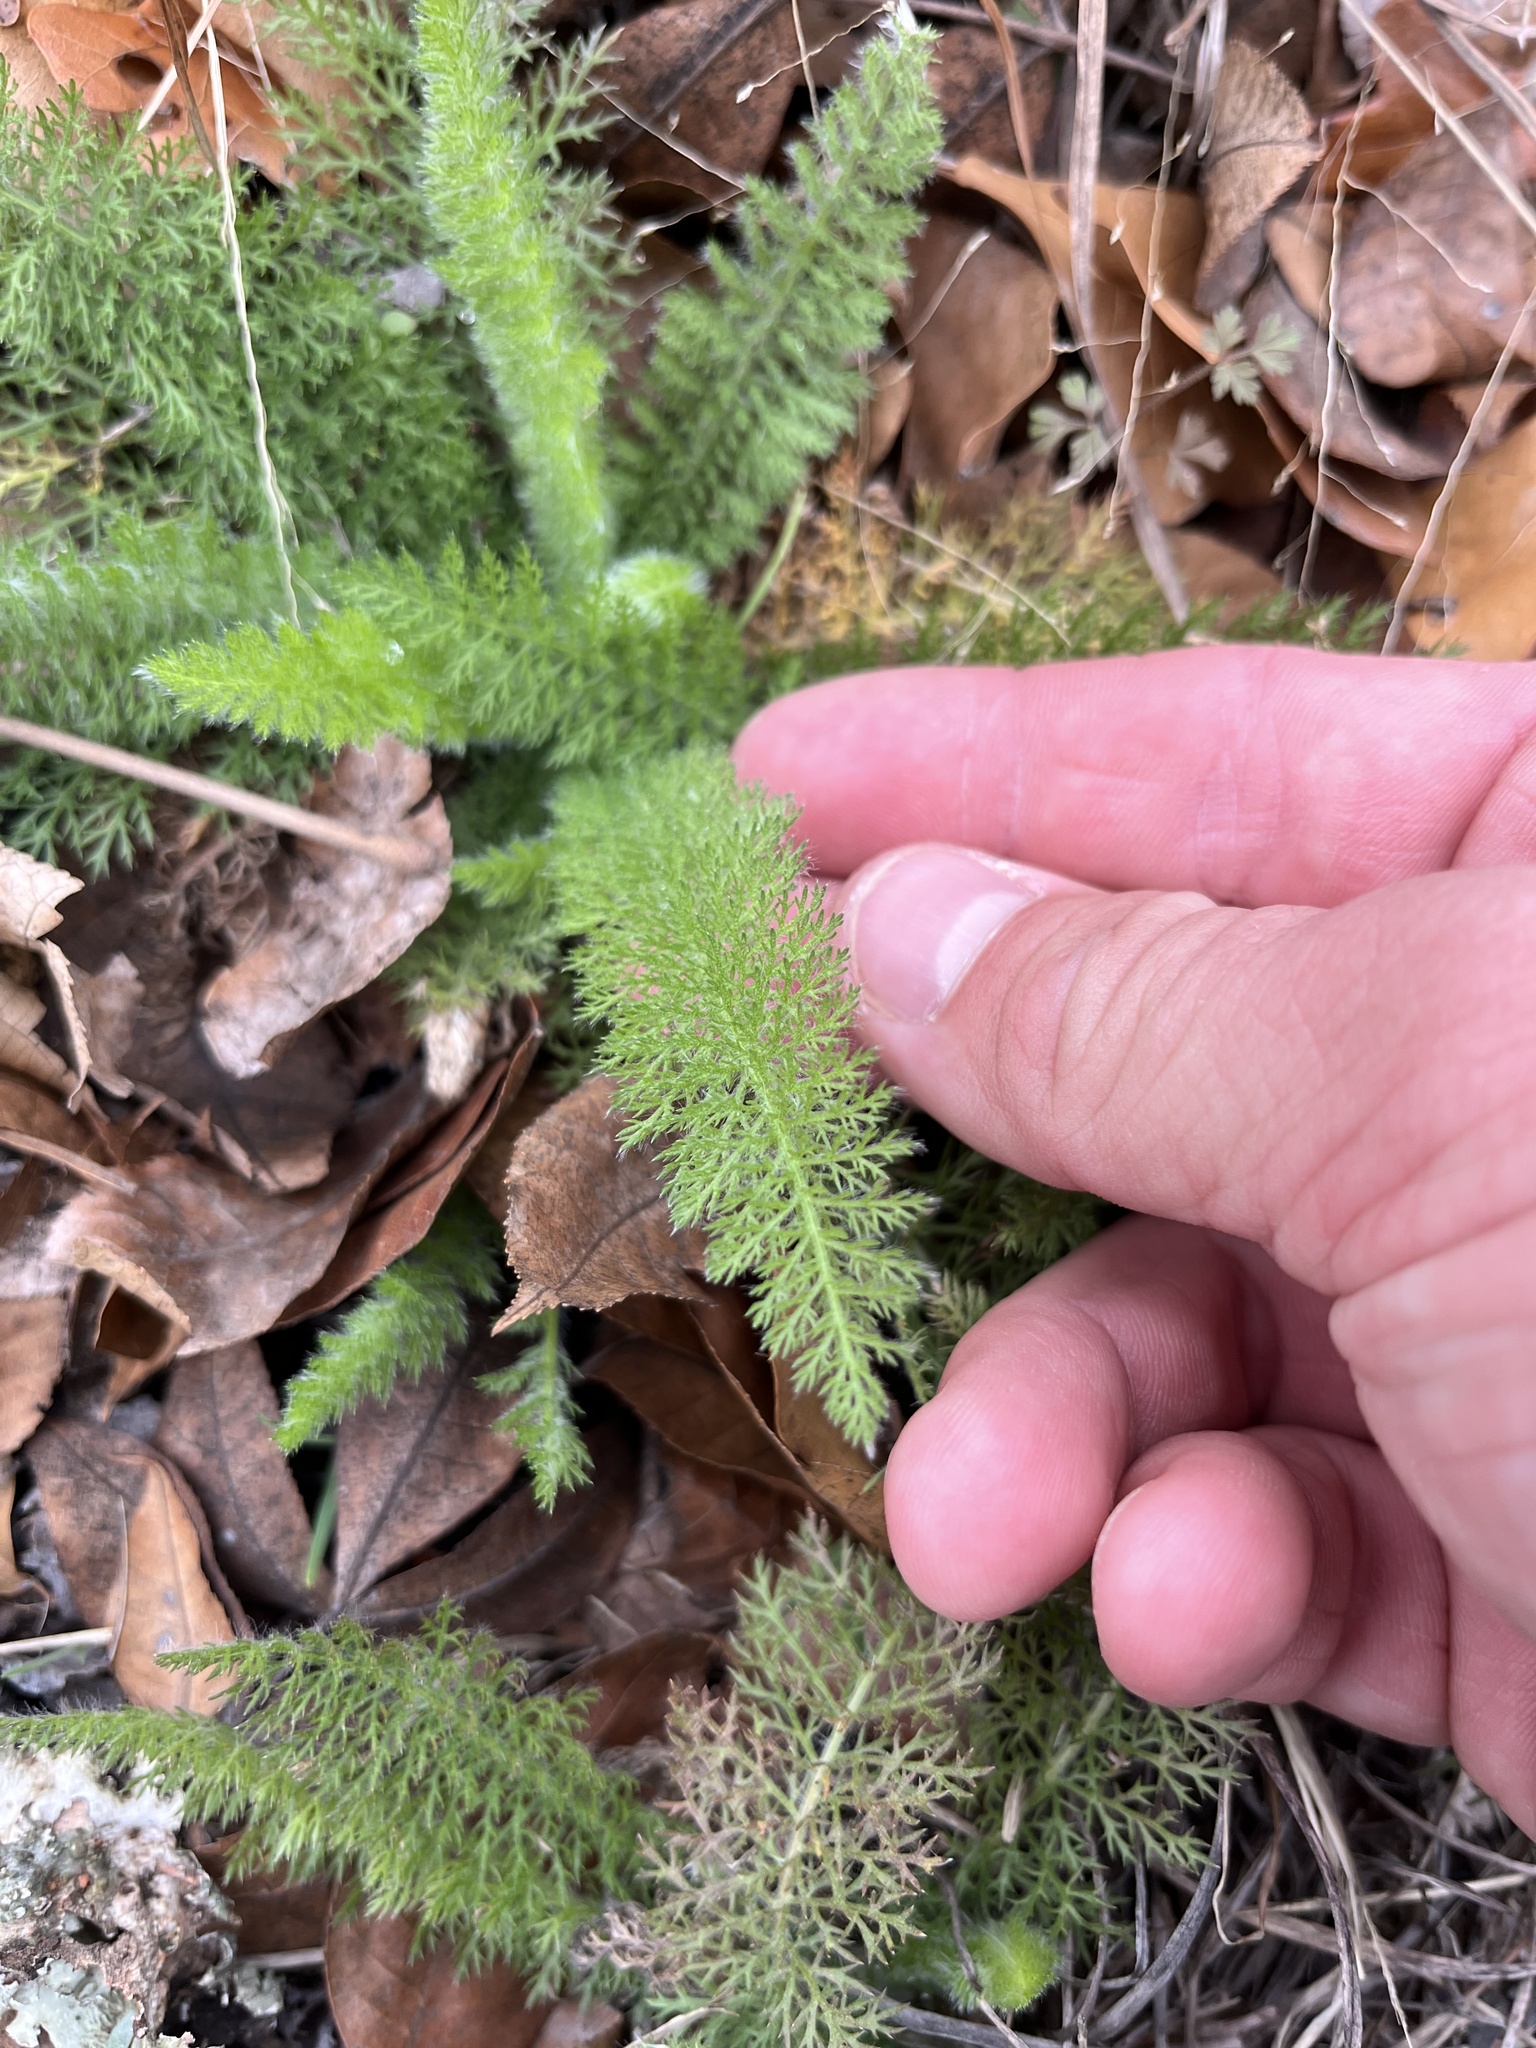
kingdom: Plantae
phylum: Tracheophyta
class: Magnoliopsida
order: Asterales
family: Asteraceae
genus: Achillea
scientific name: Achillea millefolium
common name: Yarrow
